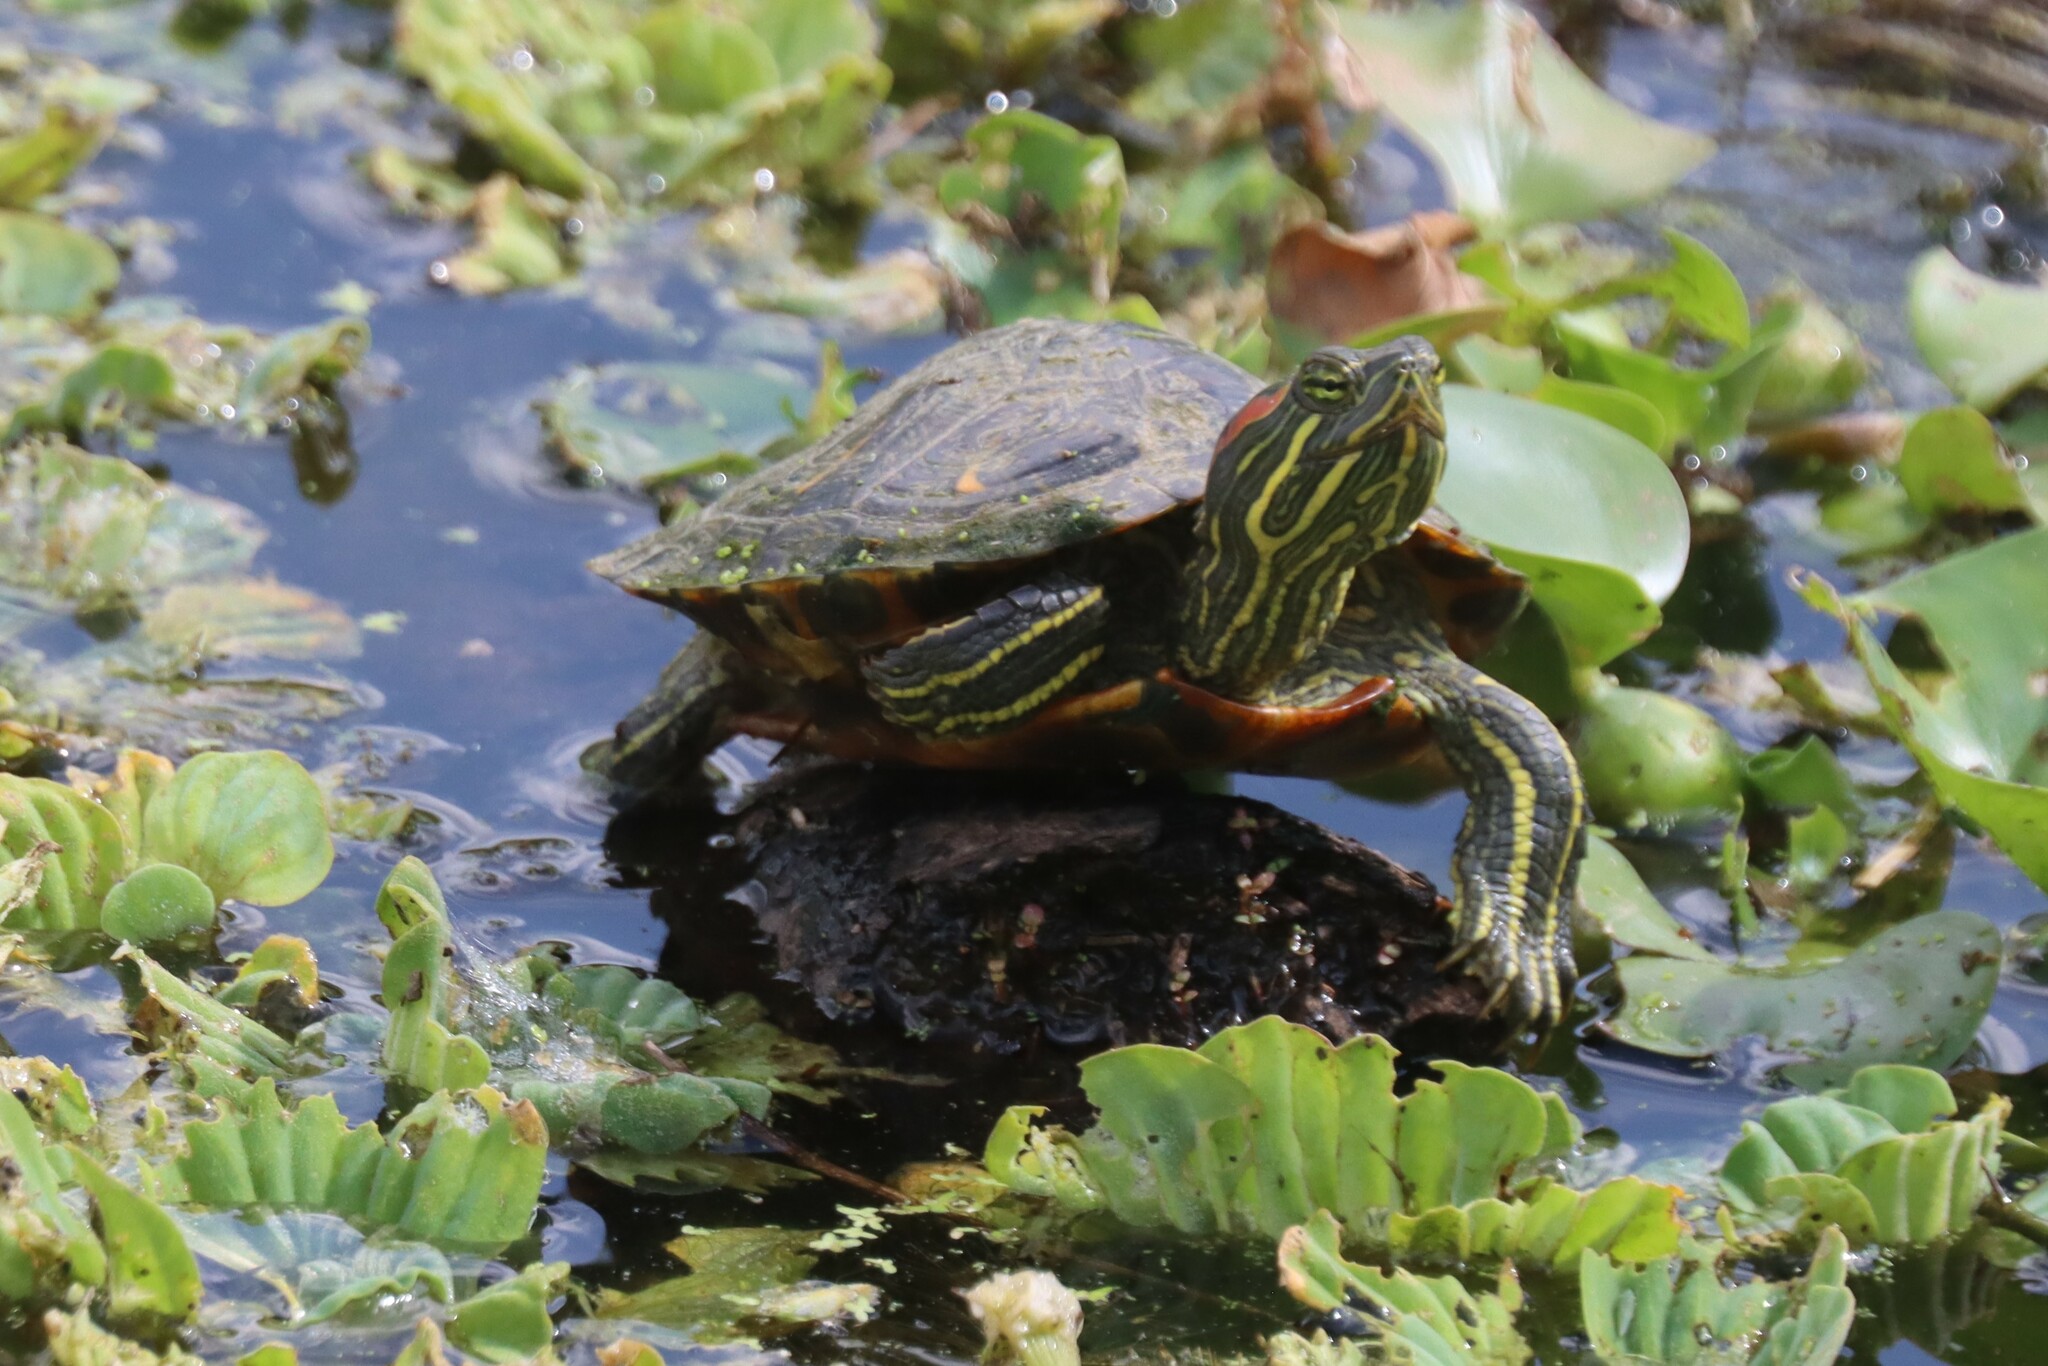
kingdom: Animalia
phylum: Chordata
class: Testudines
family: Emydidae
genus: Trachemys
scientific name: Trachemys scripta
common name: Slider
